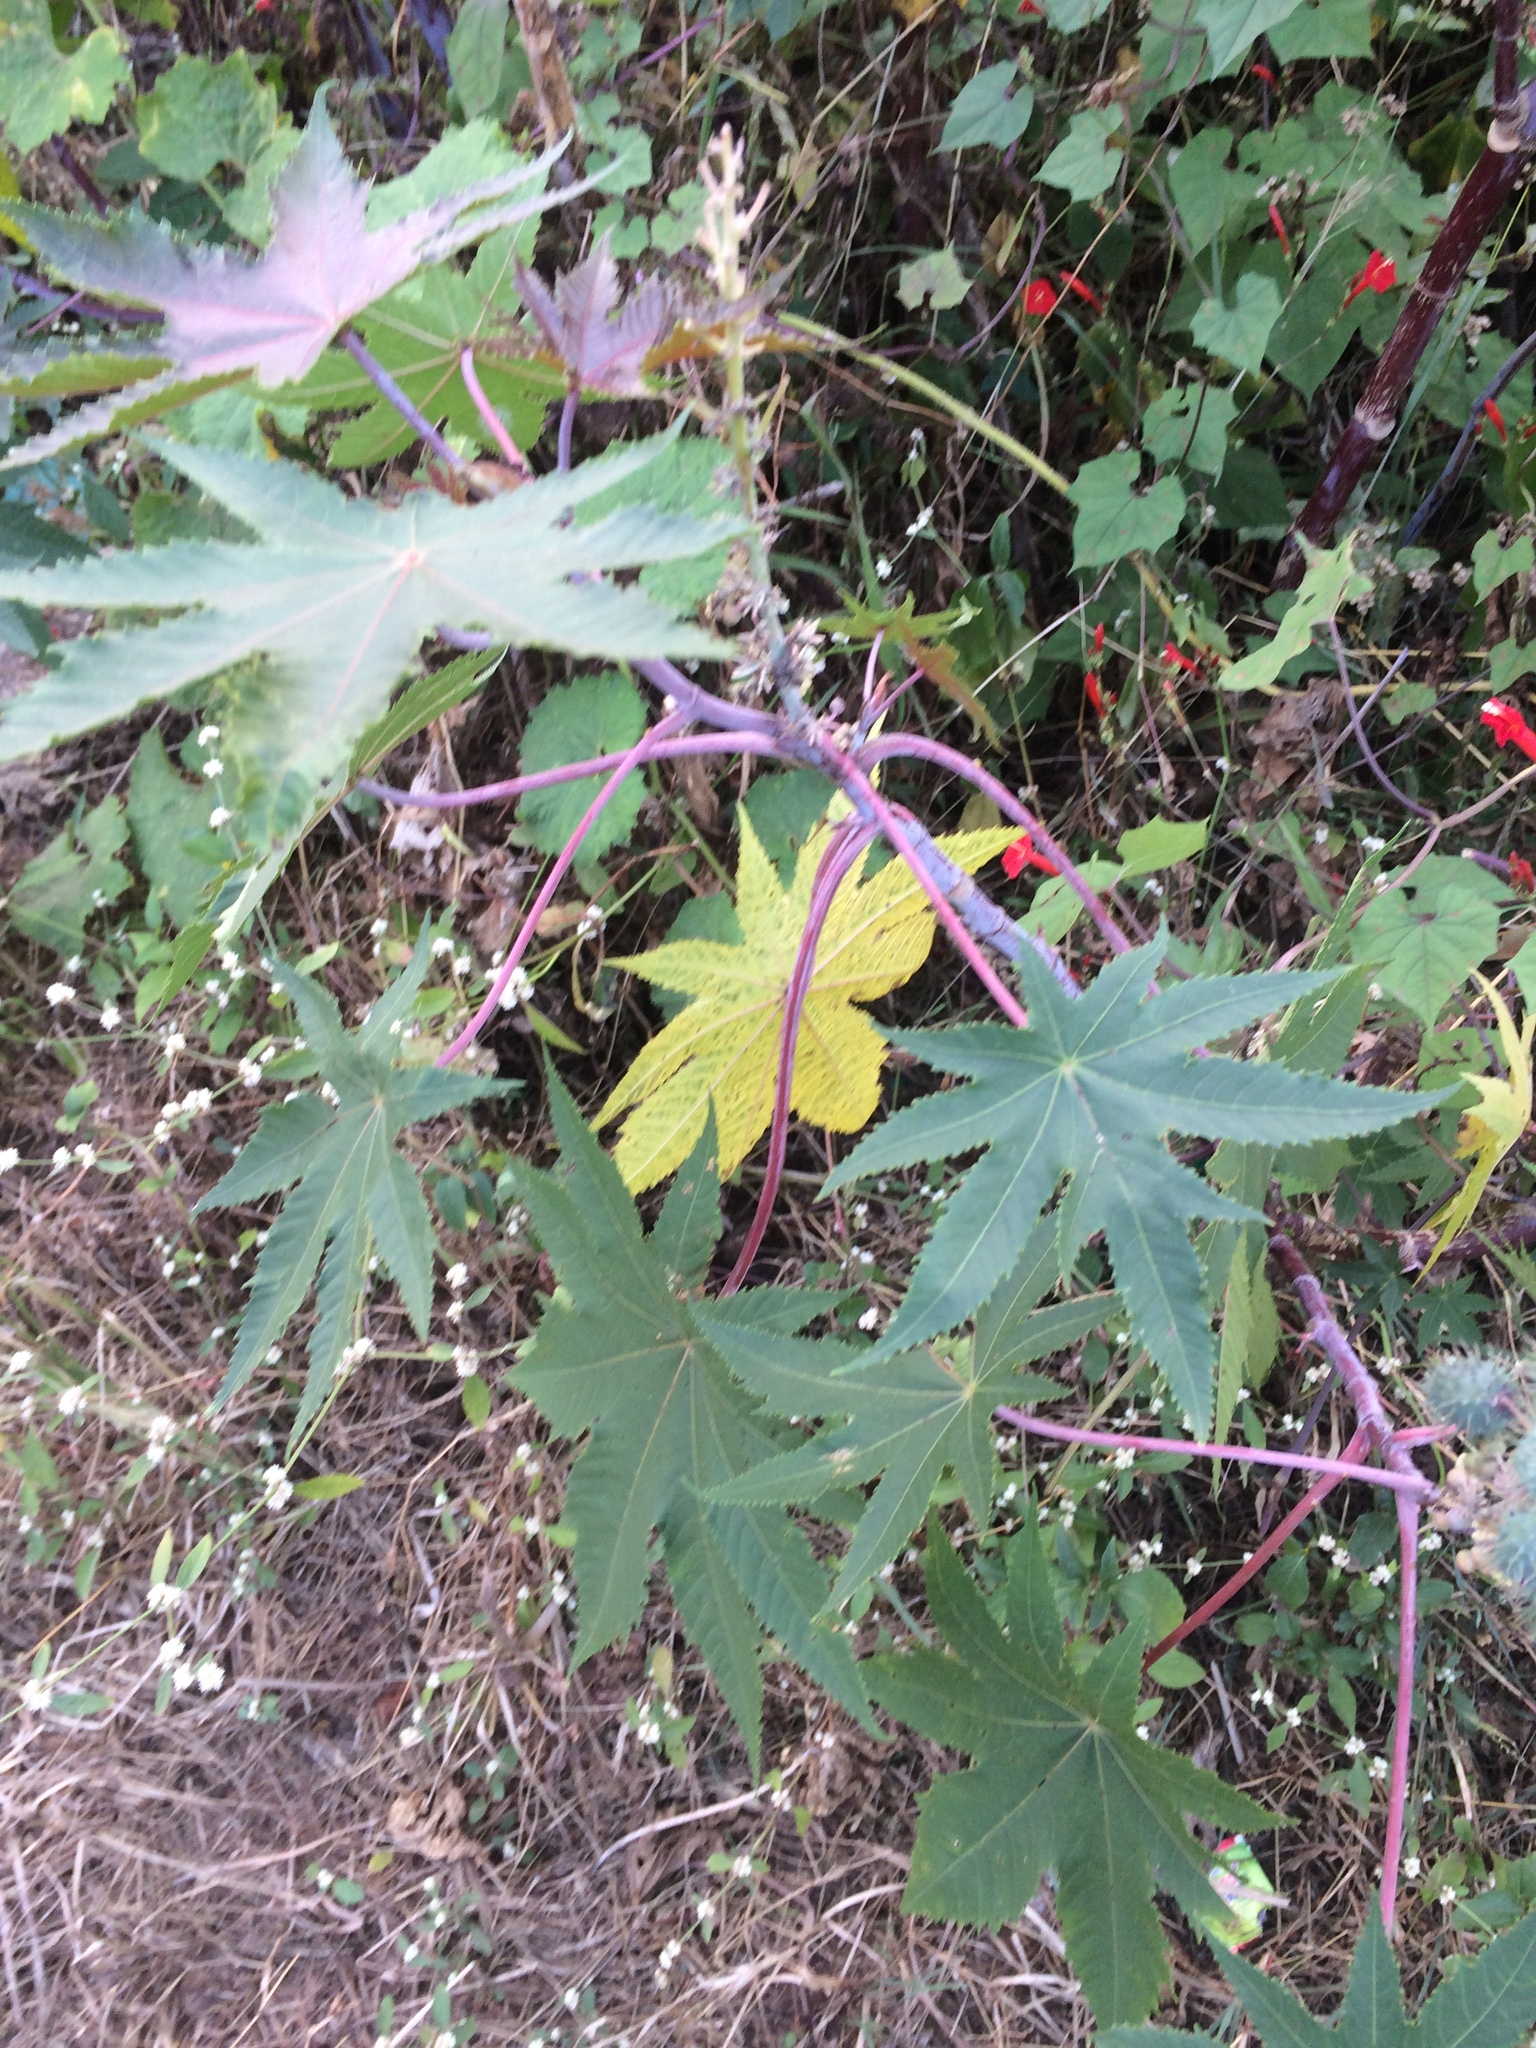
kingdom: Plantae
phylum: Tracheophyta
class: Magnoliopsida
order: Malpighiales
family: Euphorbiaceae
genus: Ricinus
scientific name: Ricinus communis
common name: Castor-oil-plant
